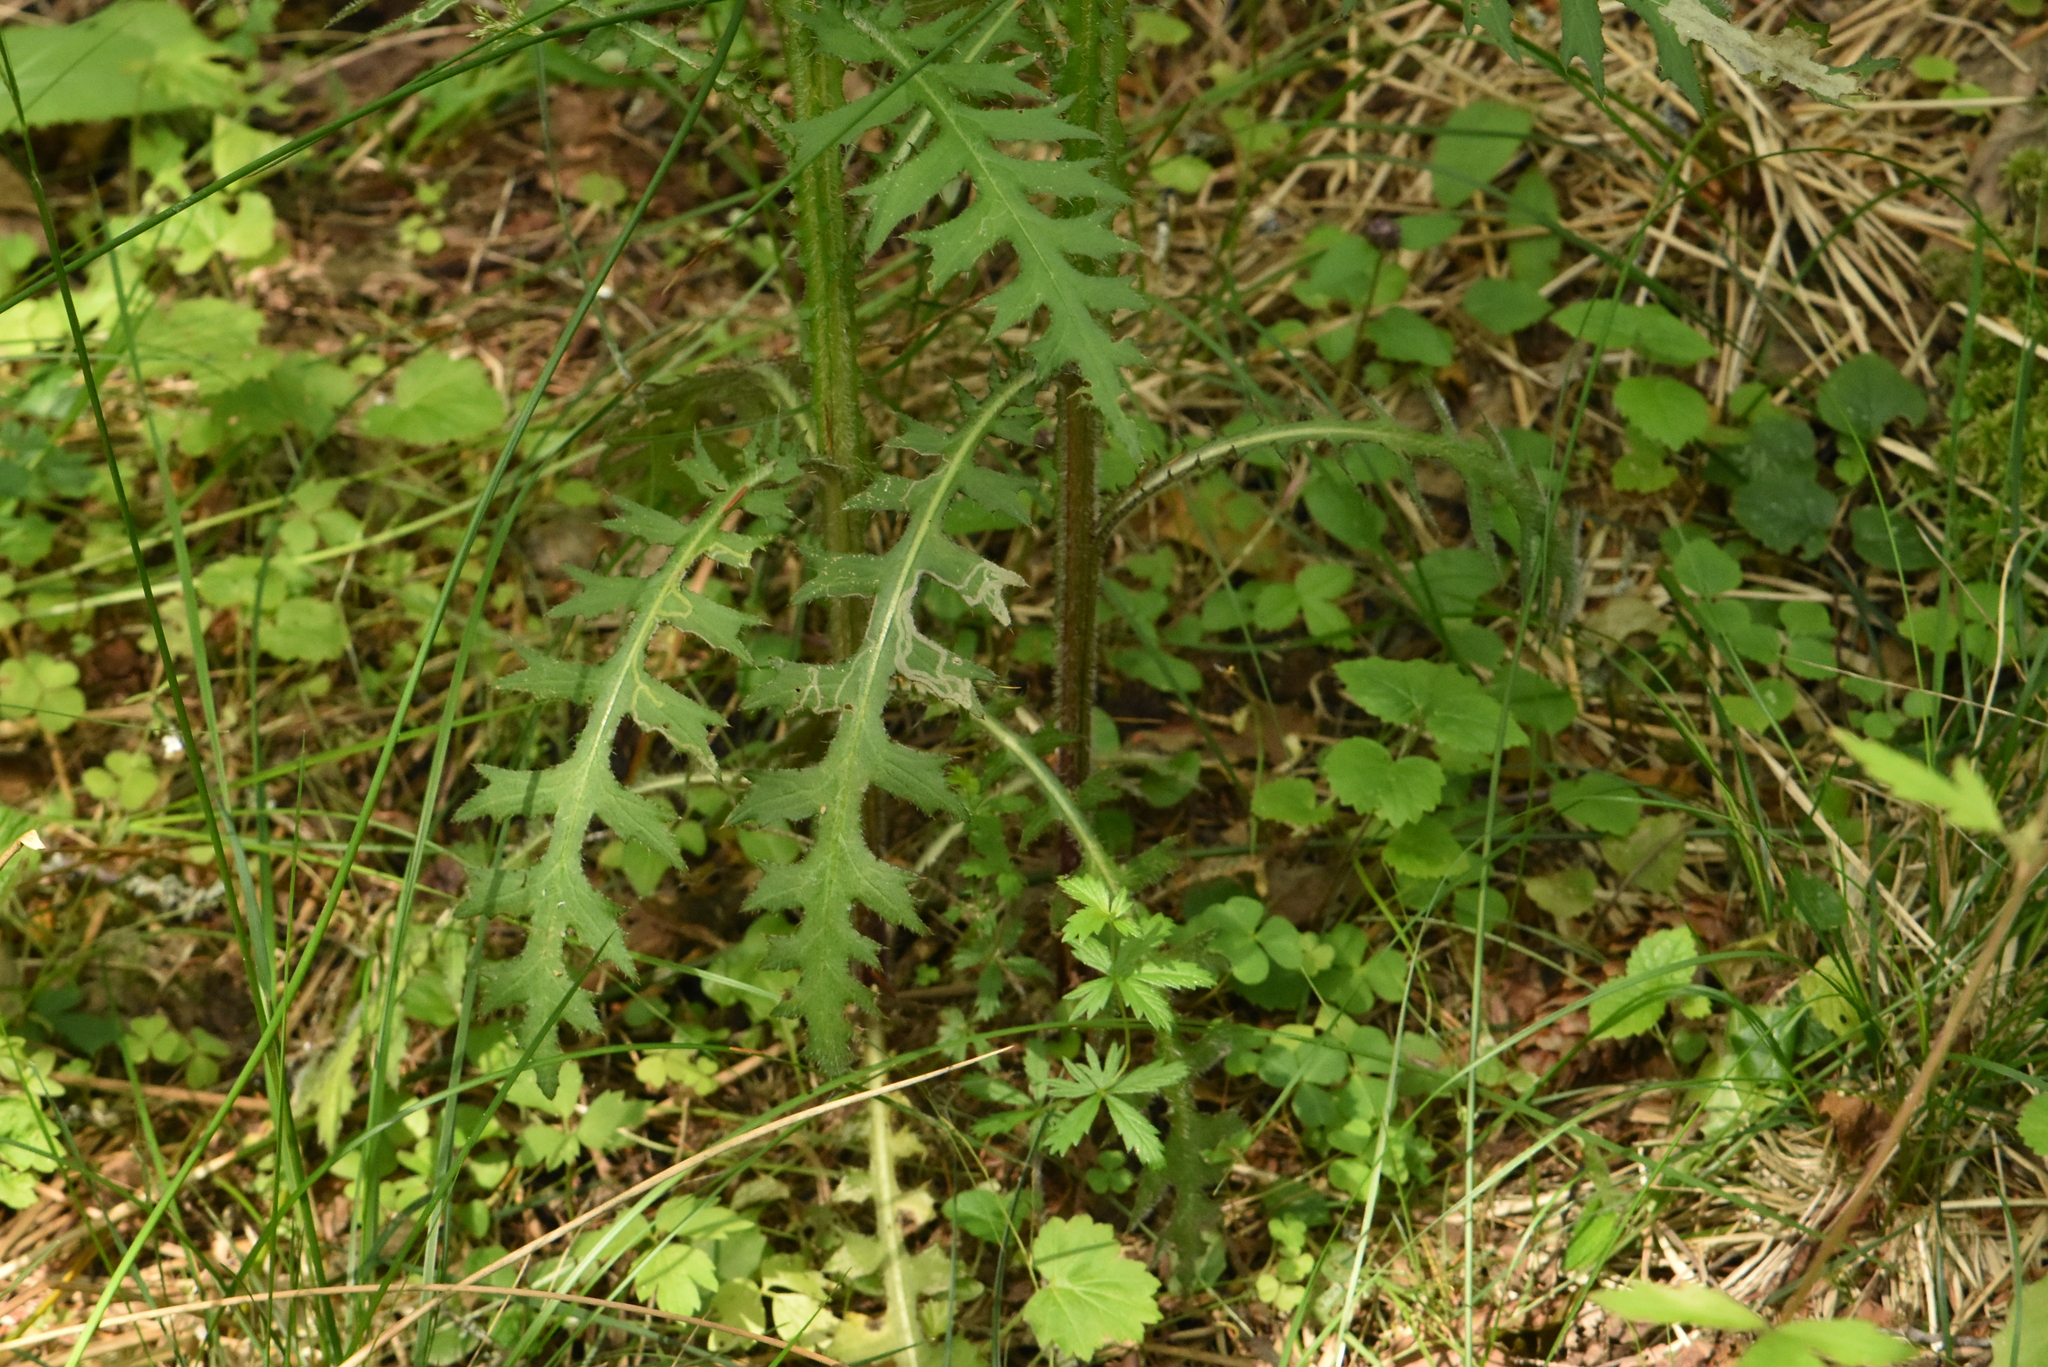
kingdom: Plantae
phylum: Tracheophyta
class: Magnoliopsida
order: Asterales
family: Asteraceae
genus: Cirsium
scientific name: Cirsium palustre
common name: Marsh thistle
